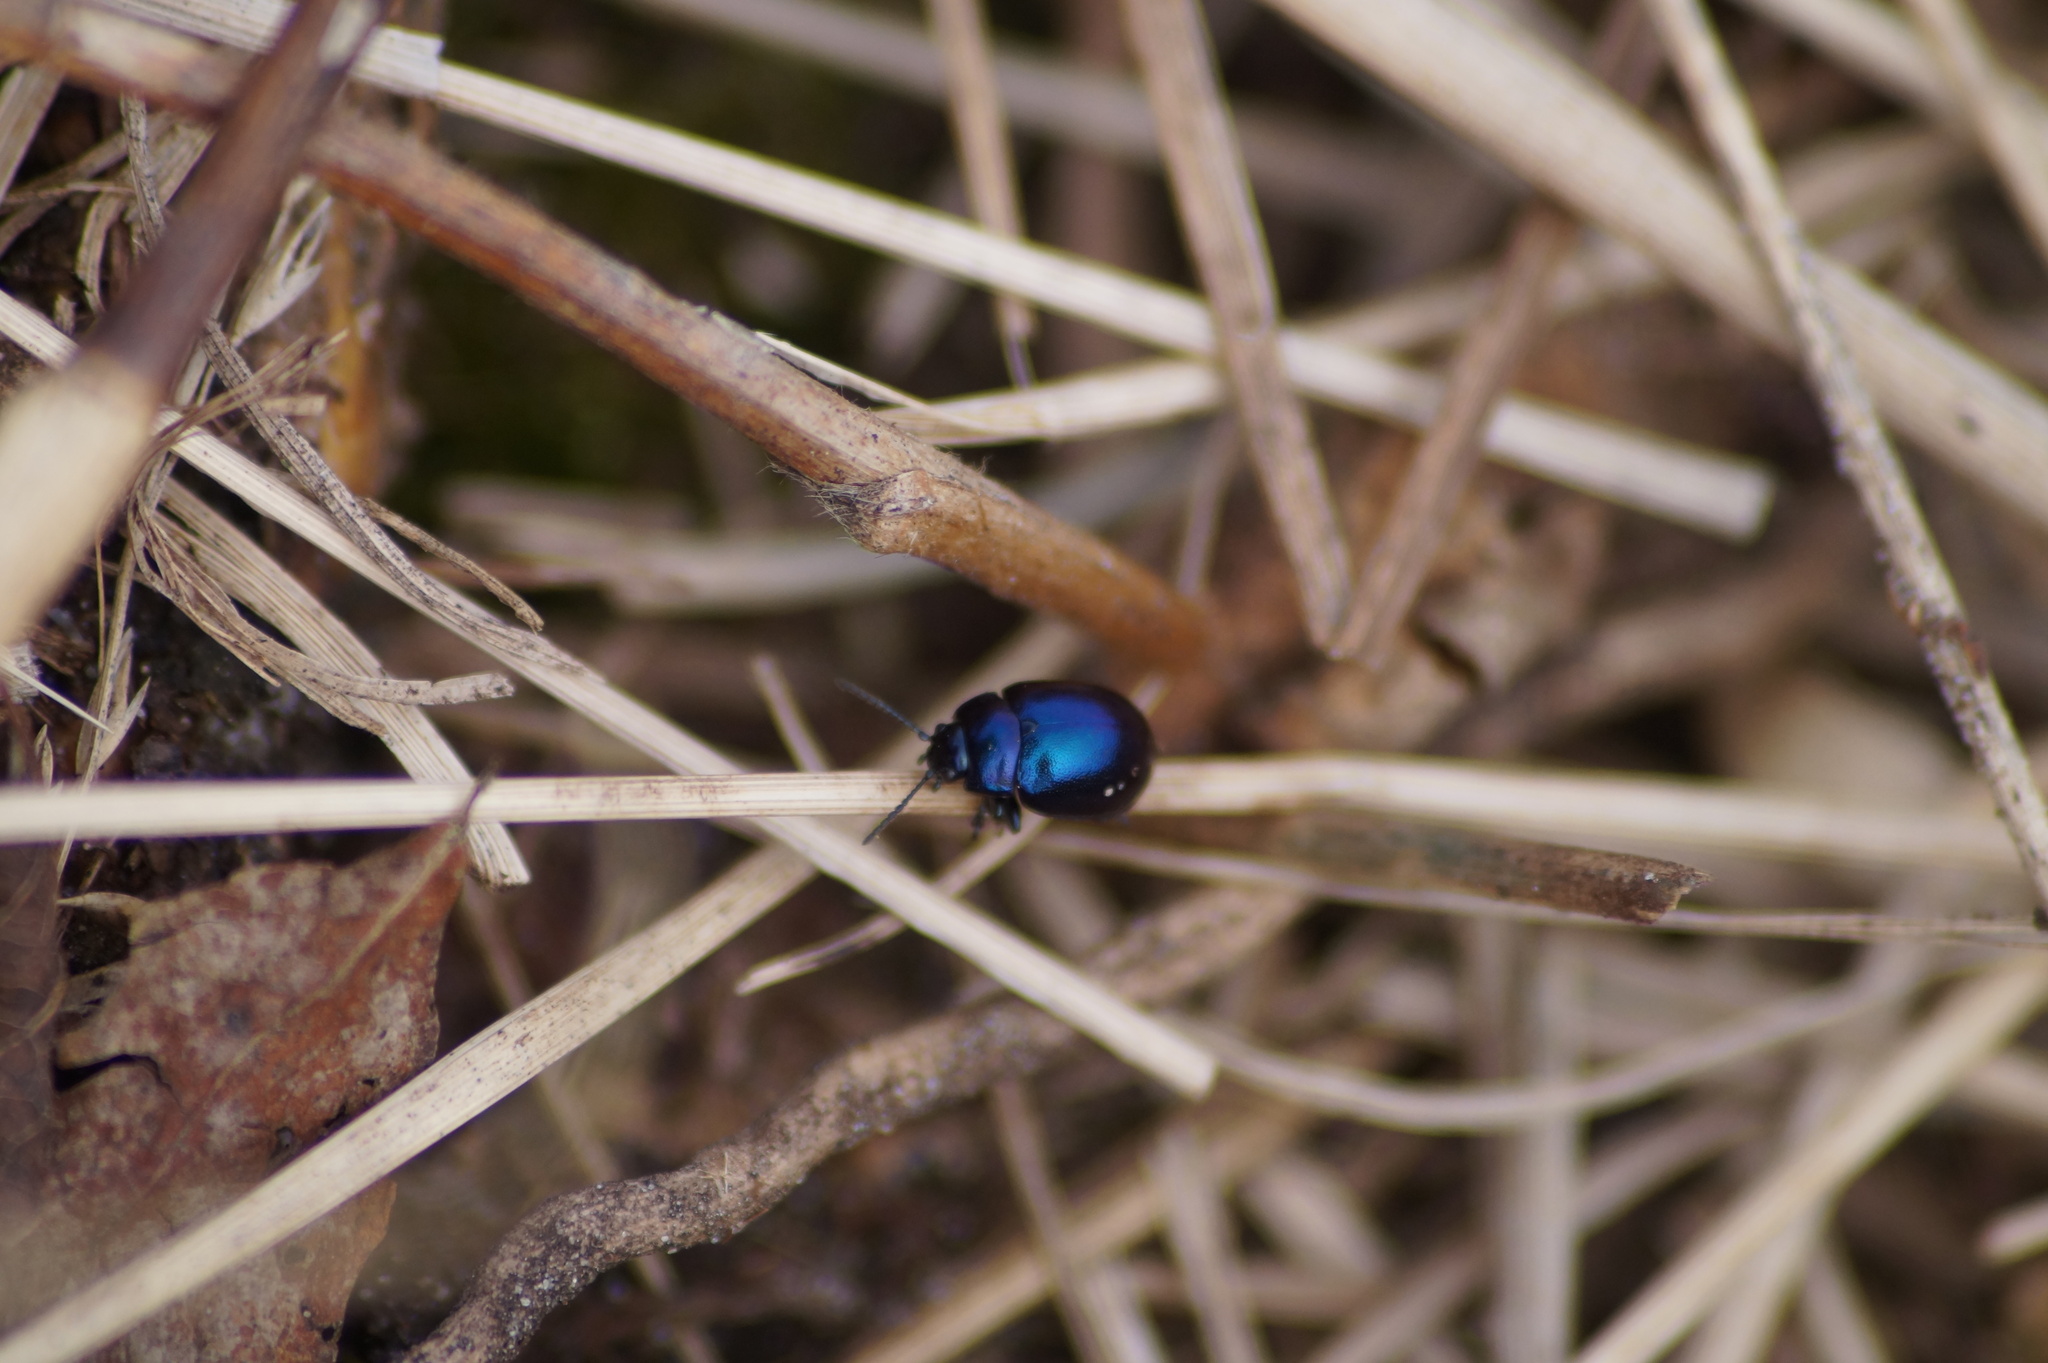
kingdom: Animalia
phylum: Arthropoda
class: Insecta
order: Coleoptera
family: Chrysomelidae
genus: Chrysolina
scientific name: Chrysolina coerulans
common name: Blue mint beetle
